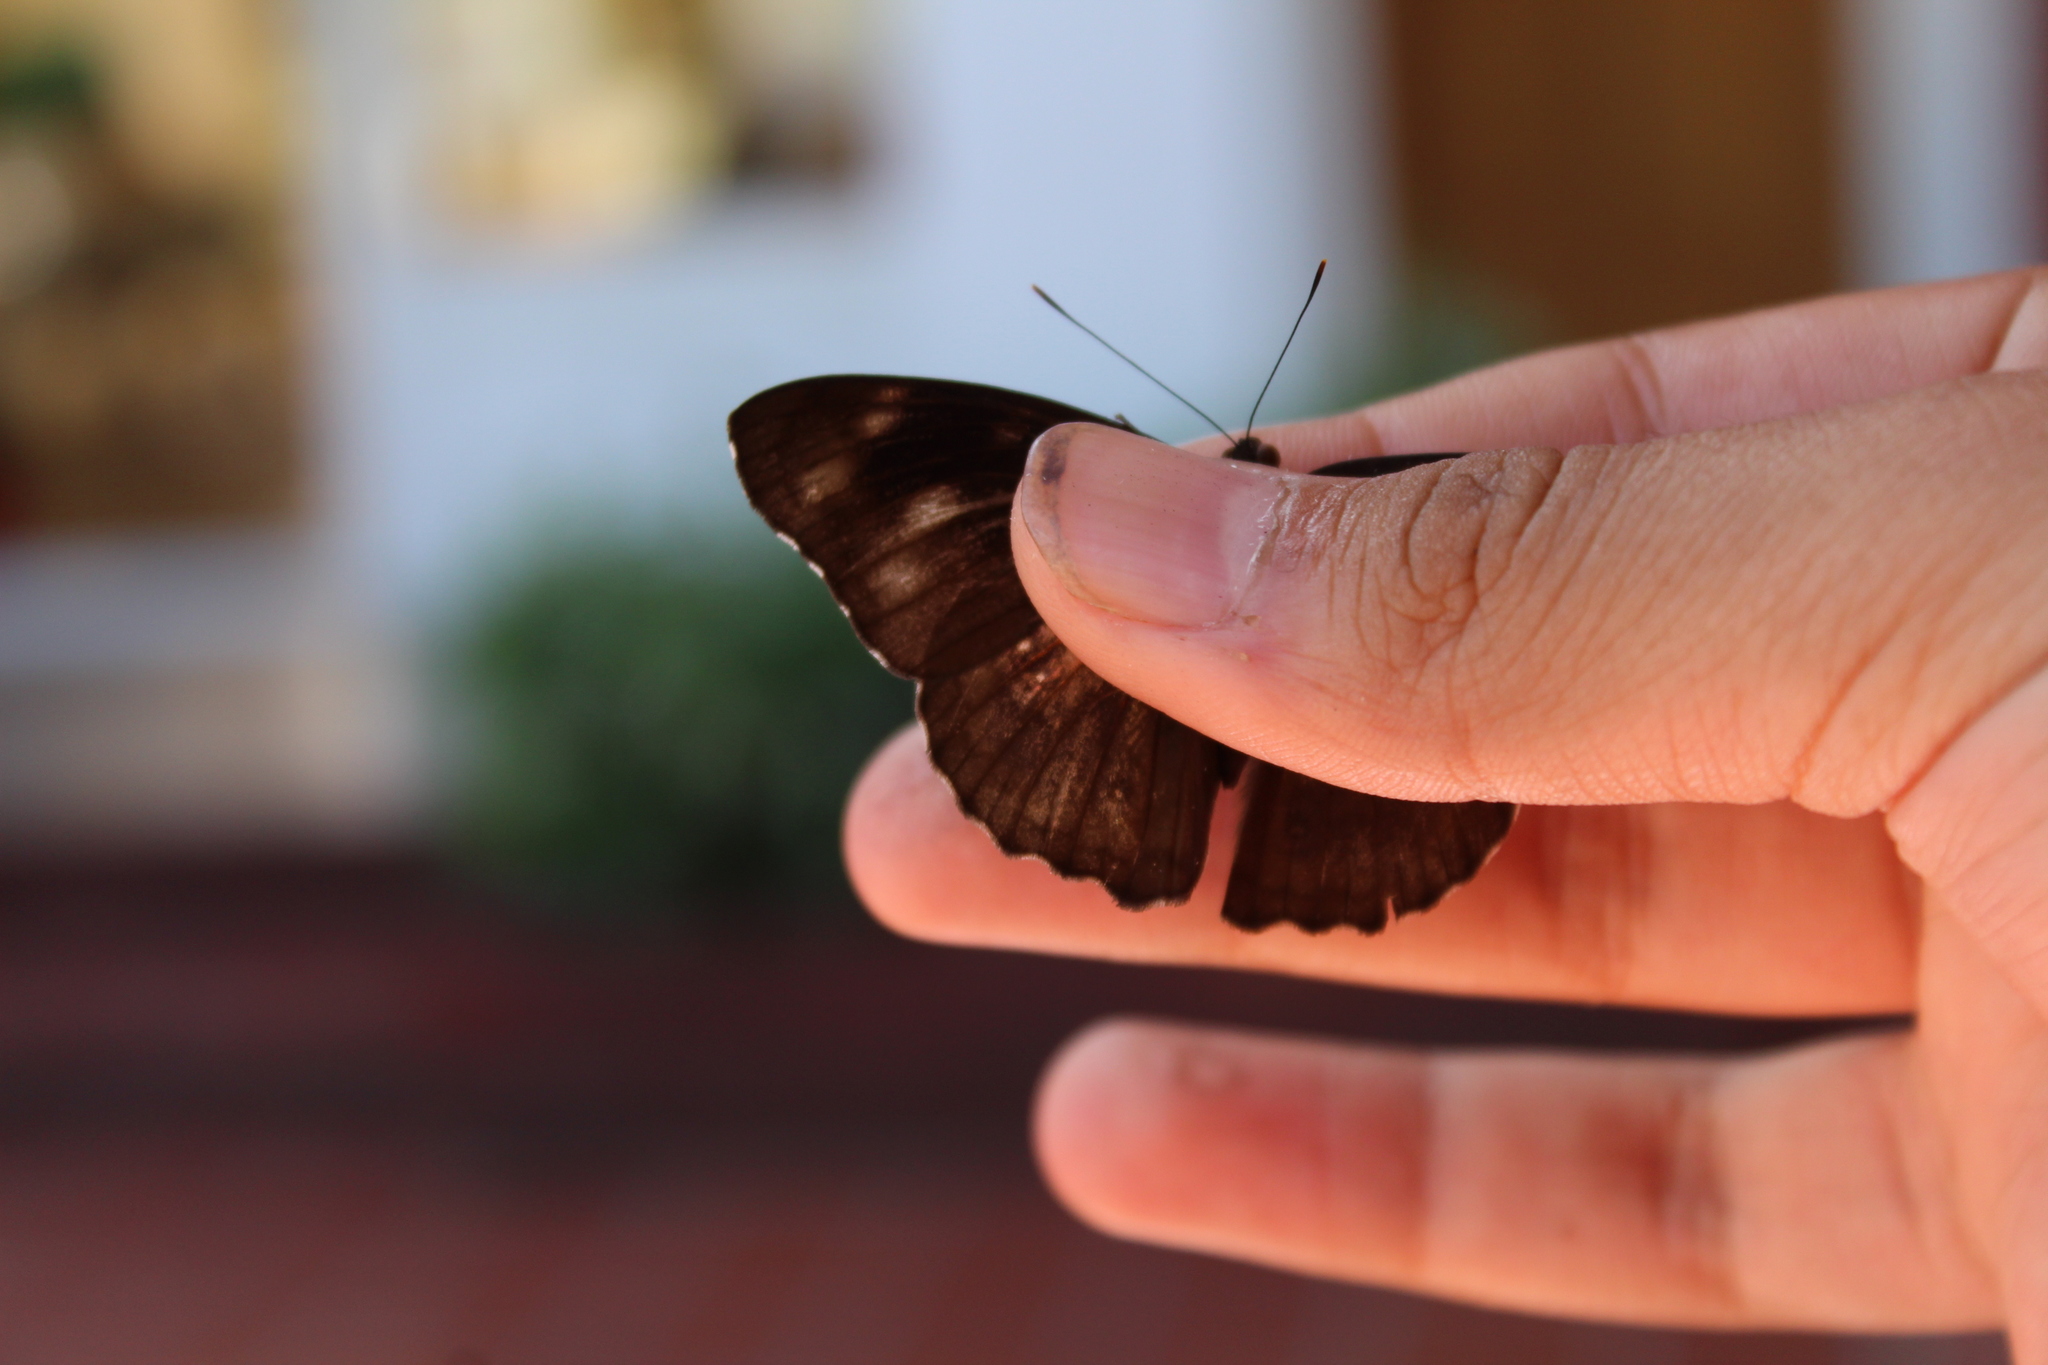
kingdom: Animalia
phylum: Arthropoda
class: Insecta
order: Lepidoptera
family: Nymphalidae
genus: Eunica
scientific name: Eunica malvina
